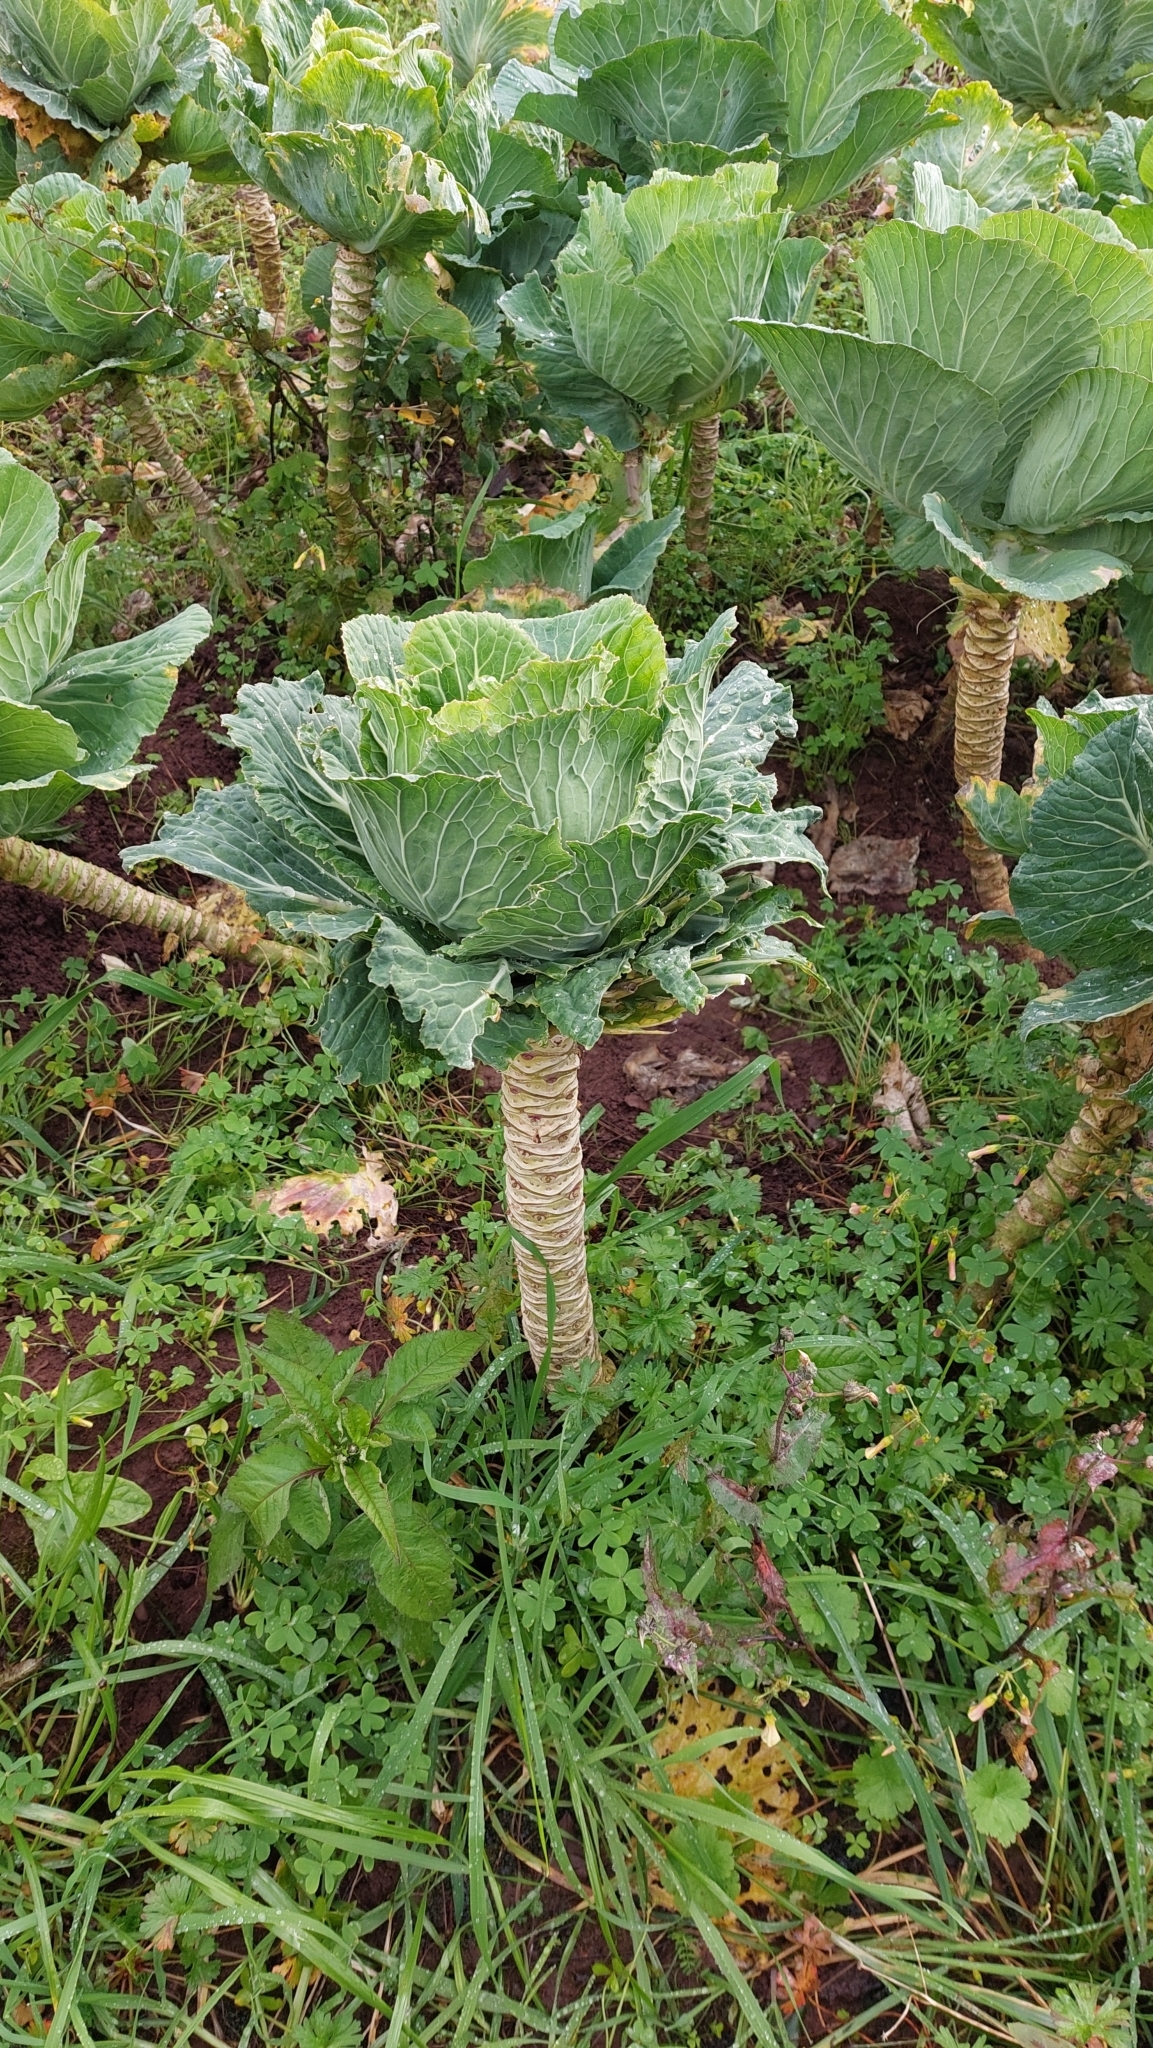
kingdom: Plantae
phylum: Tracheophyta
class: Magnoliopsida
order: Brassicales
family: Brassicaceae
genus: Brassica
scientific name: Brassica oleracea
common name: Cabbage
